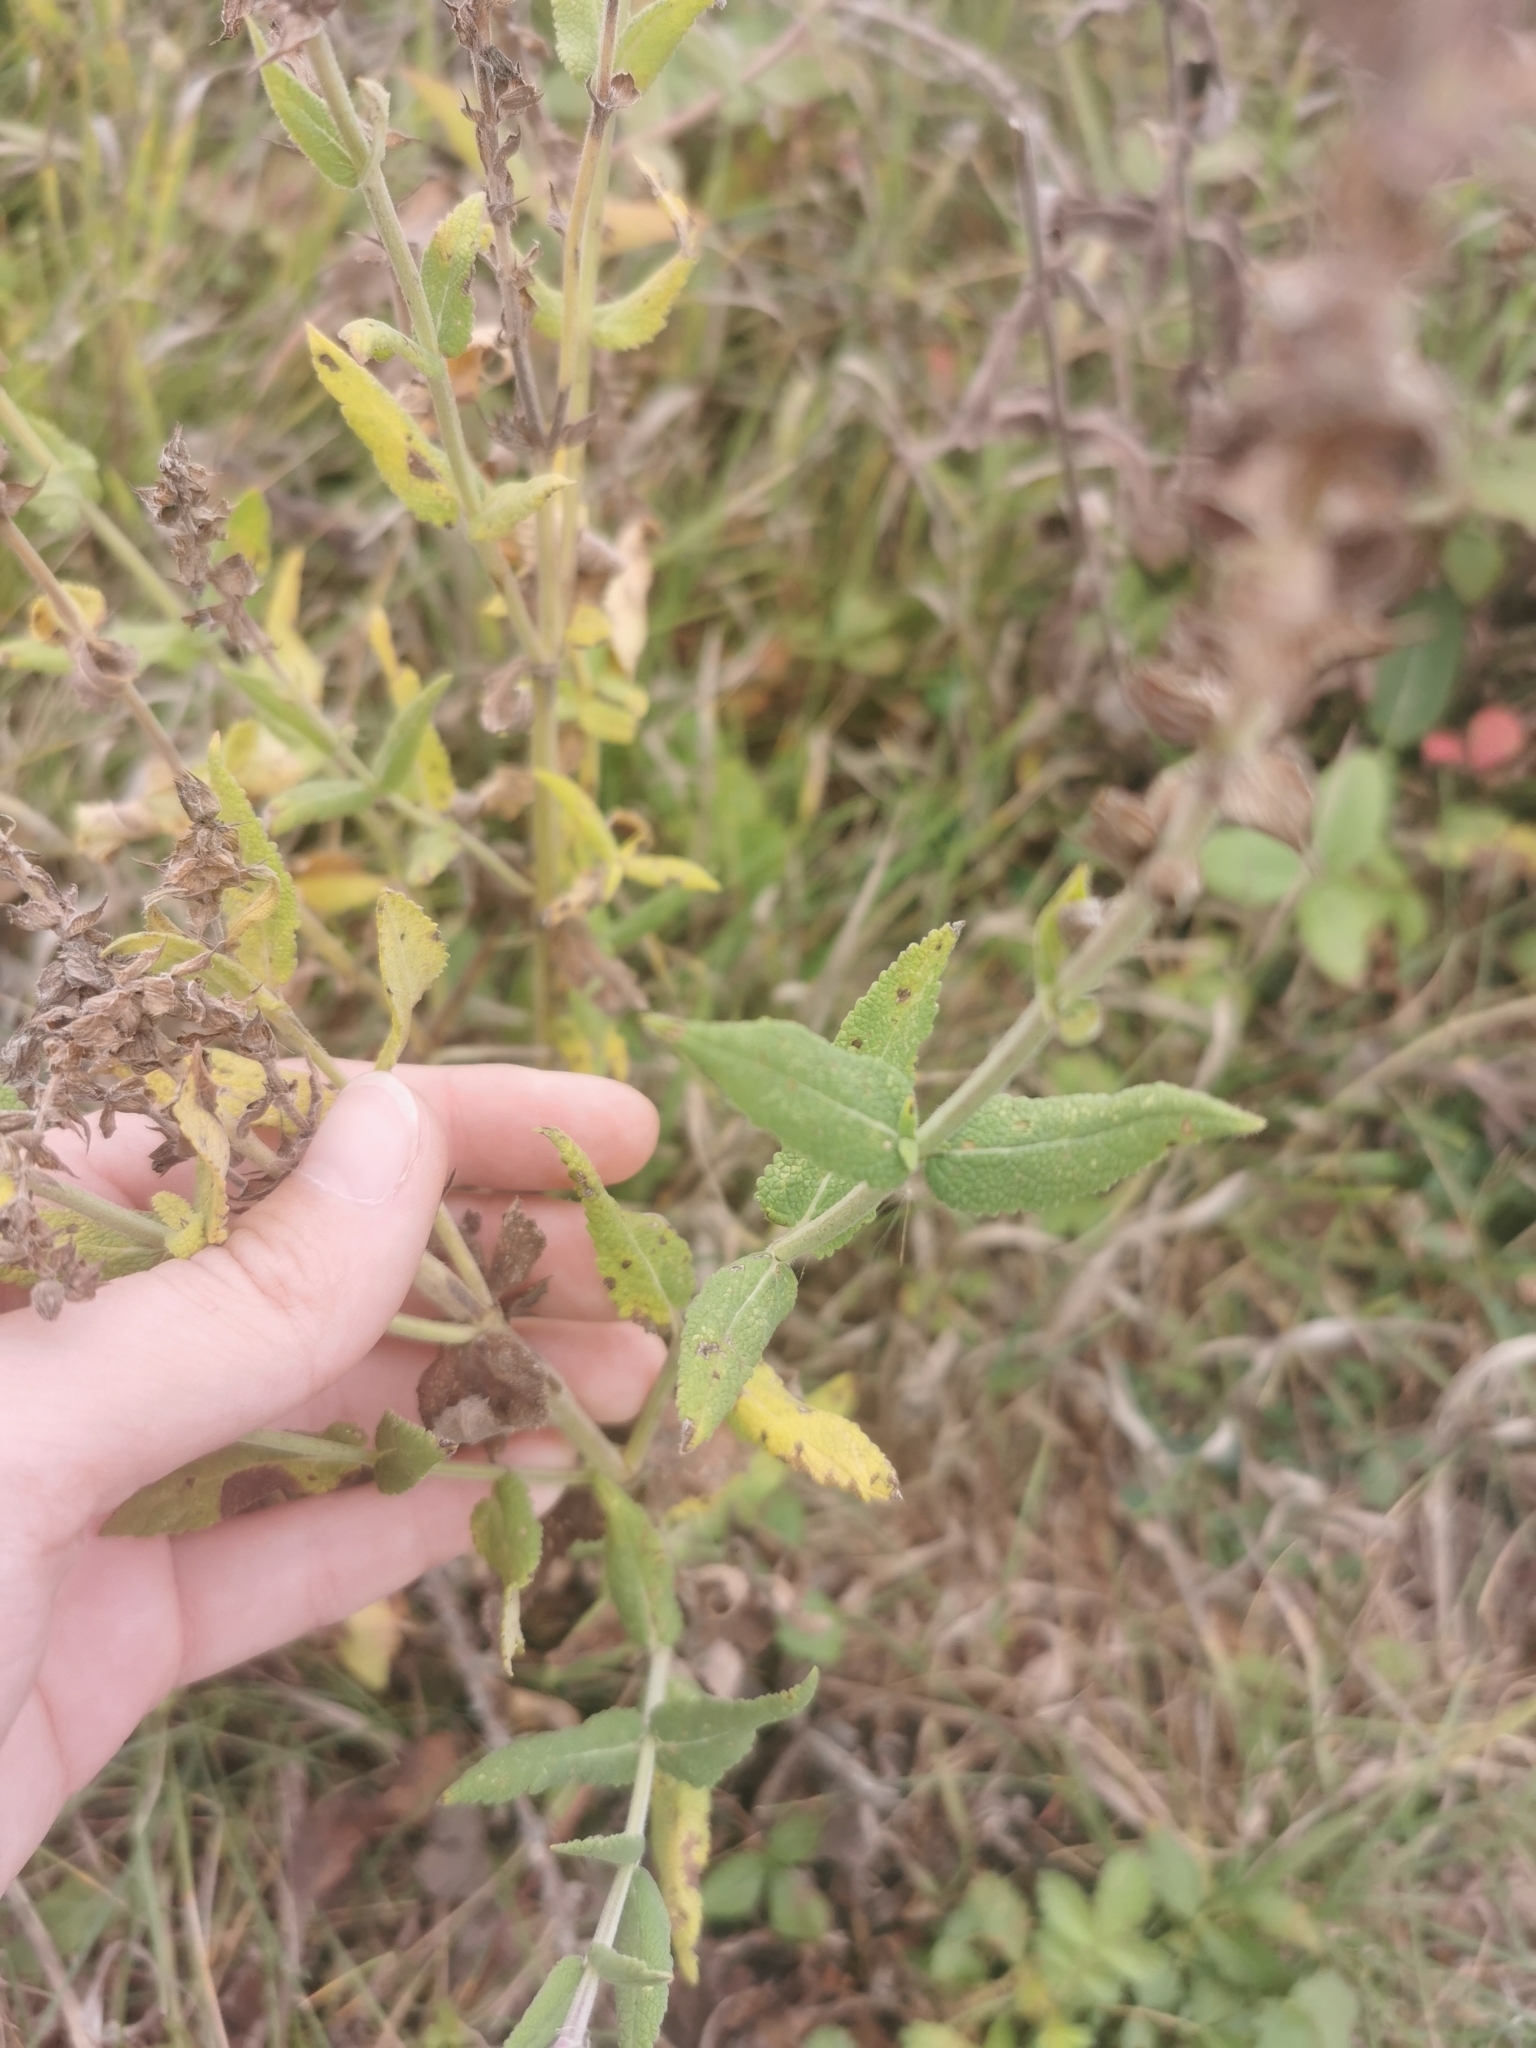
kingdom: Plantae
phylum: Tracheophyta
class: Magnoliopsida
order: Lamiales
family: Lamiaceae
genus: Salvia
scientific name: Salvia nemorosa
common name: Balkan clary
